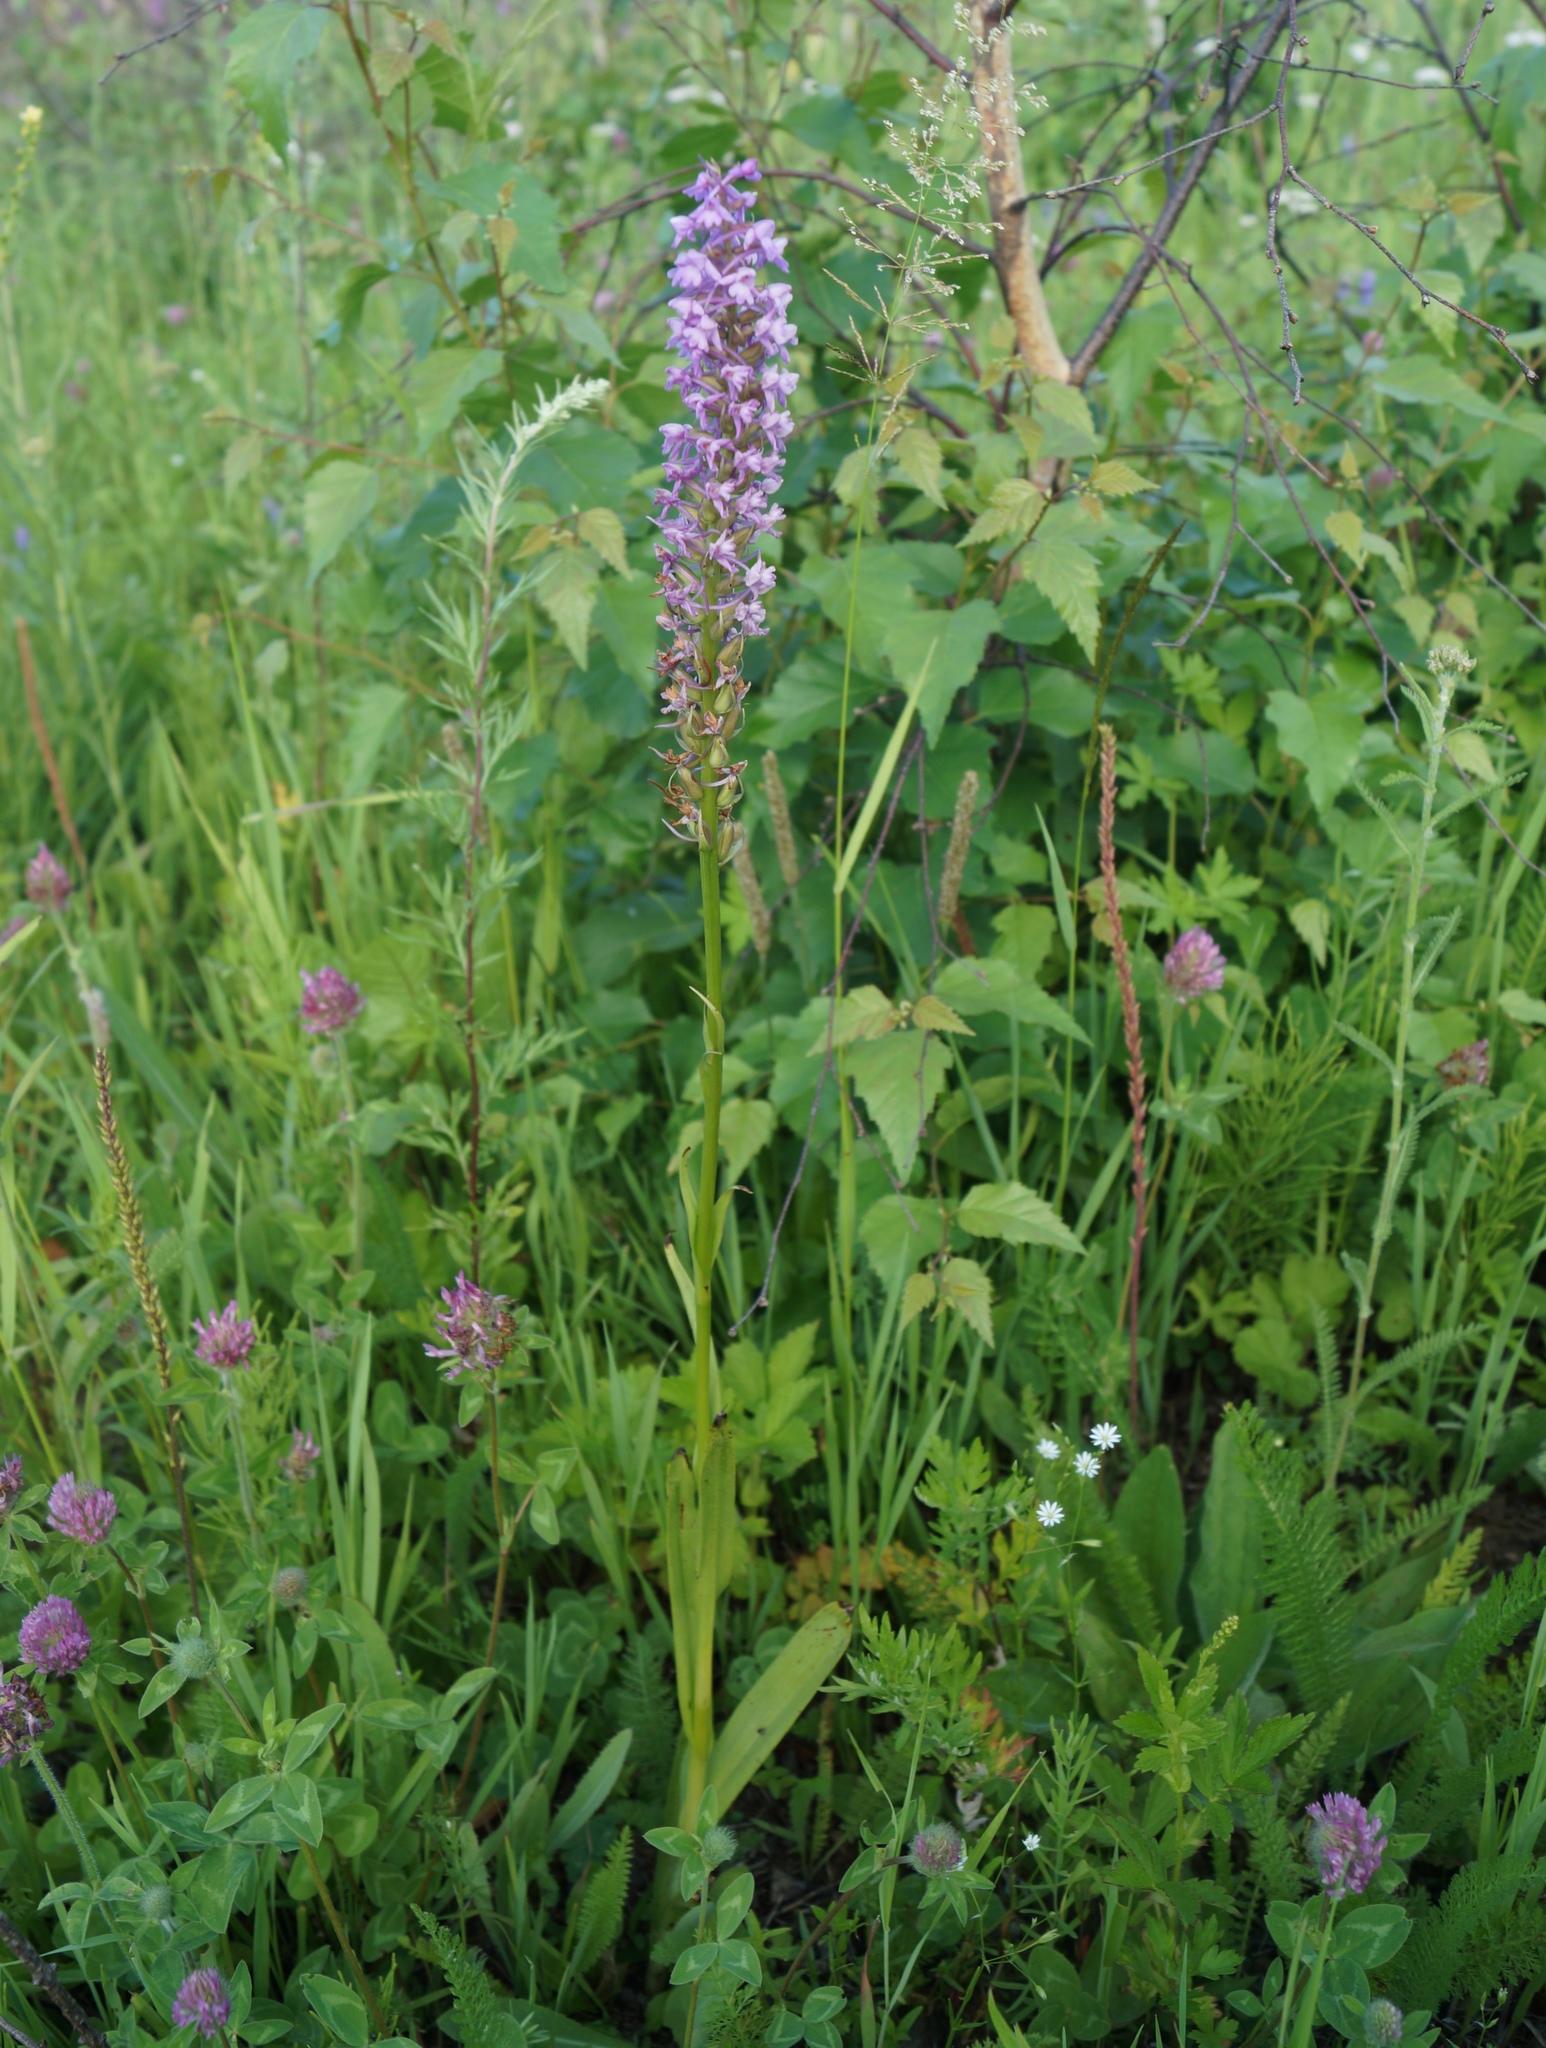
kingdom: Plantae
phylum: Tracheophyta
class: Liliopsida
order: Asparagales
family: Orchidaceae
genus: Gymnadenia
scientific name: Gymnadenia conopsea
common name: Fragrant orchid
